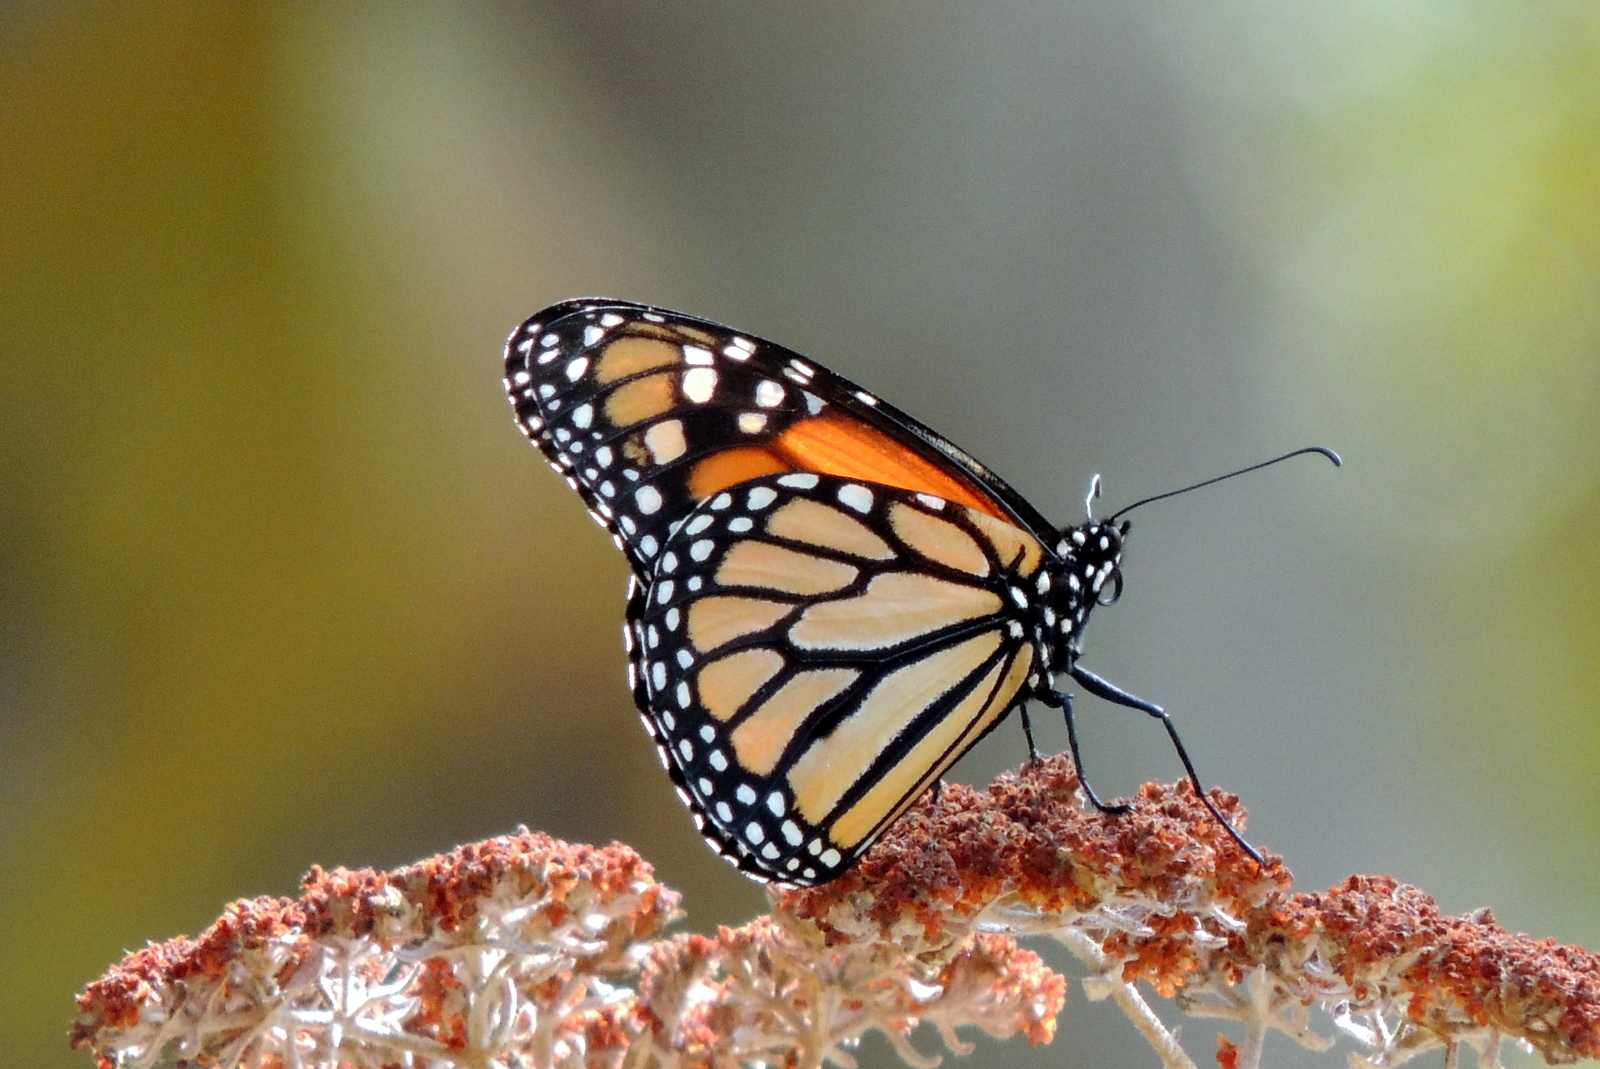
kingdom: Animalia
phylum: Arthropoda
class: Insecta
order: Lepidoptera
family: Nymphalidae
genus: Danaus
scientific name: Danaus plexippus
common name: Monarch
